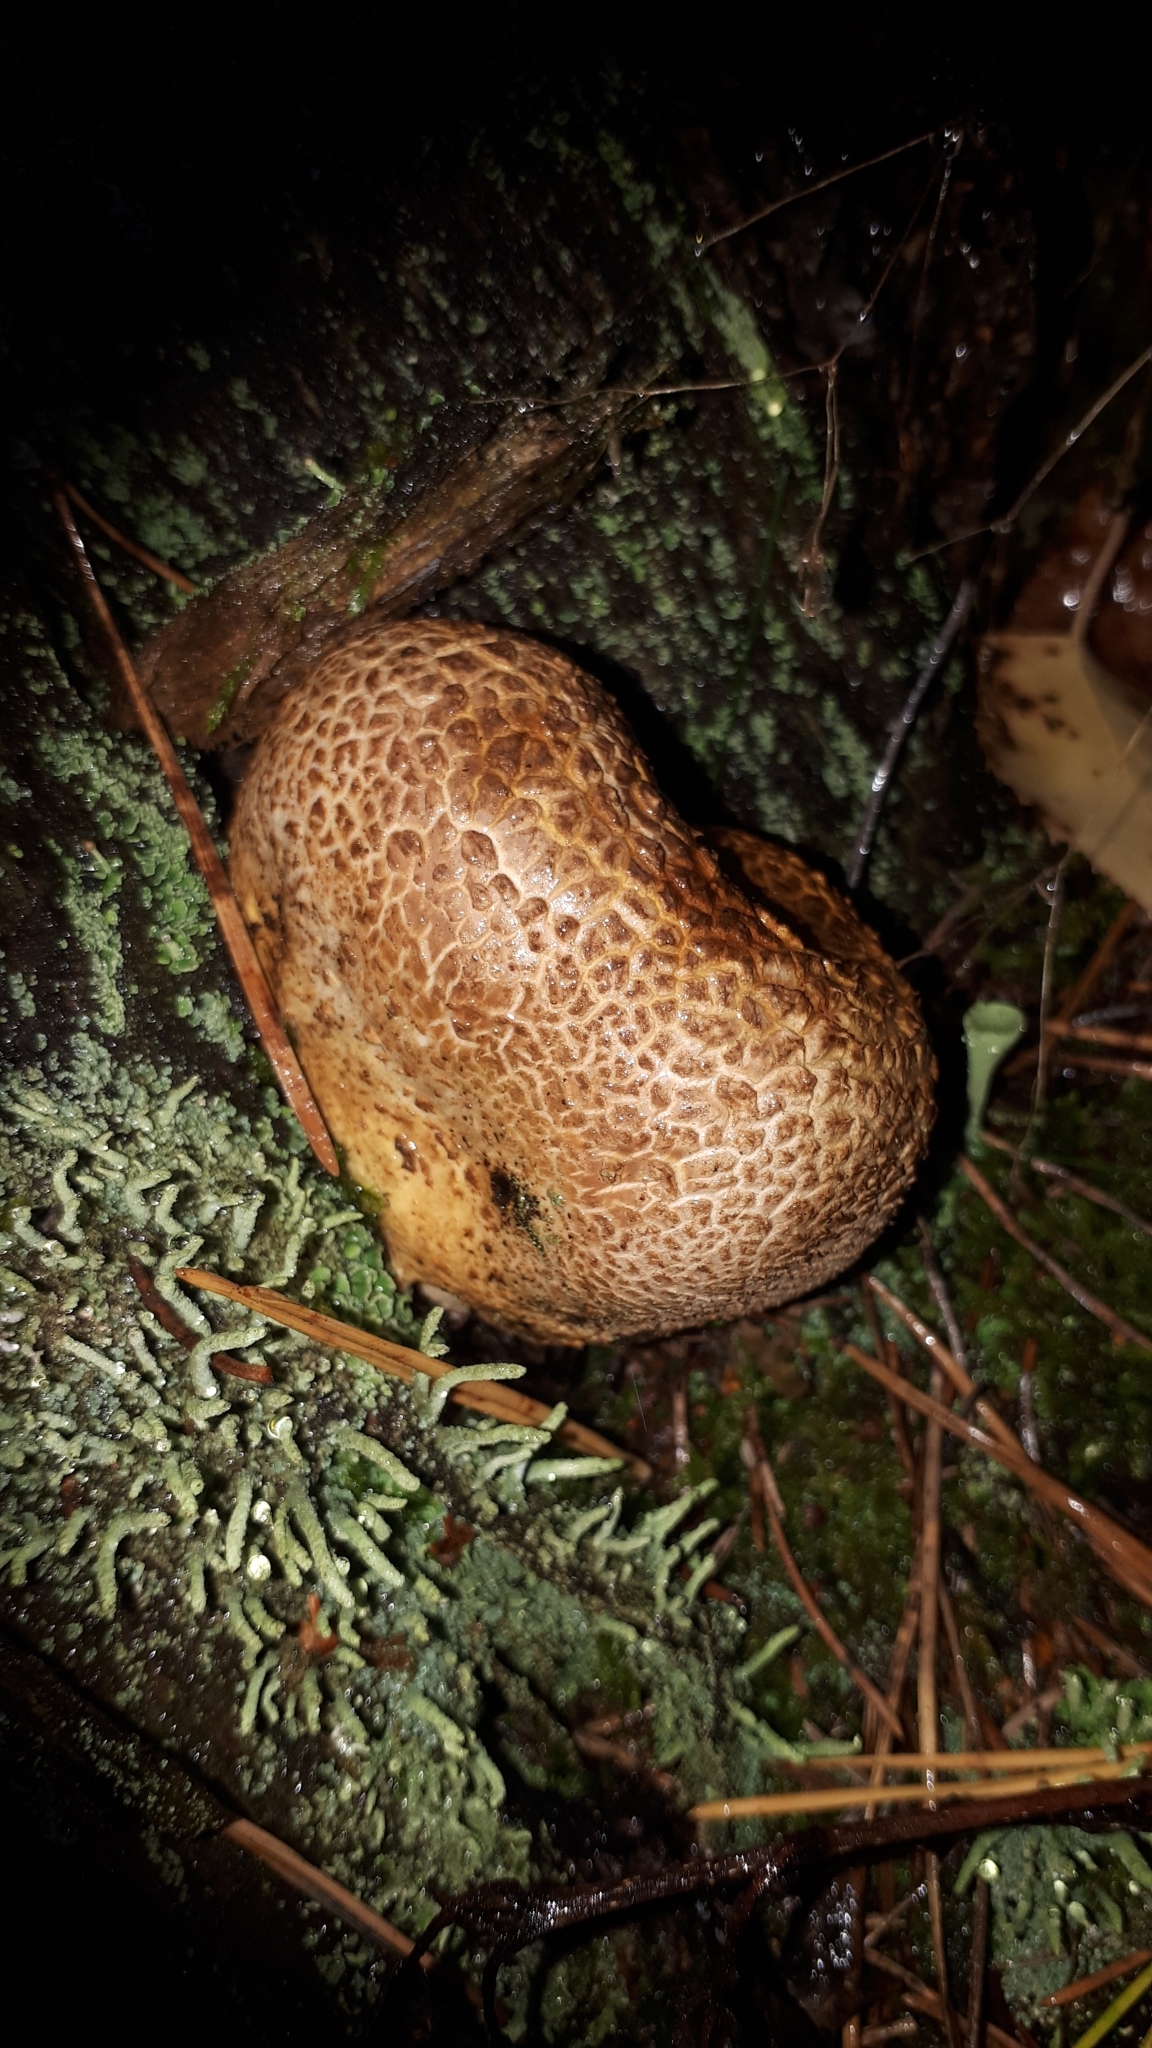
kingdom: Fungi
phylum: Basidiomycota
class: Agaricomycetes
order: Boletales
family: Sclerodermataceae
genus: Scleroderma
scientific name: Scleroderma citrinum
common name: Common earthball
